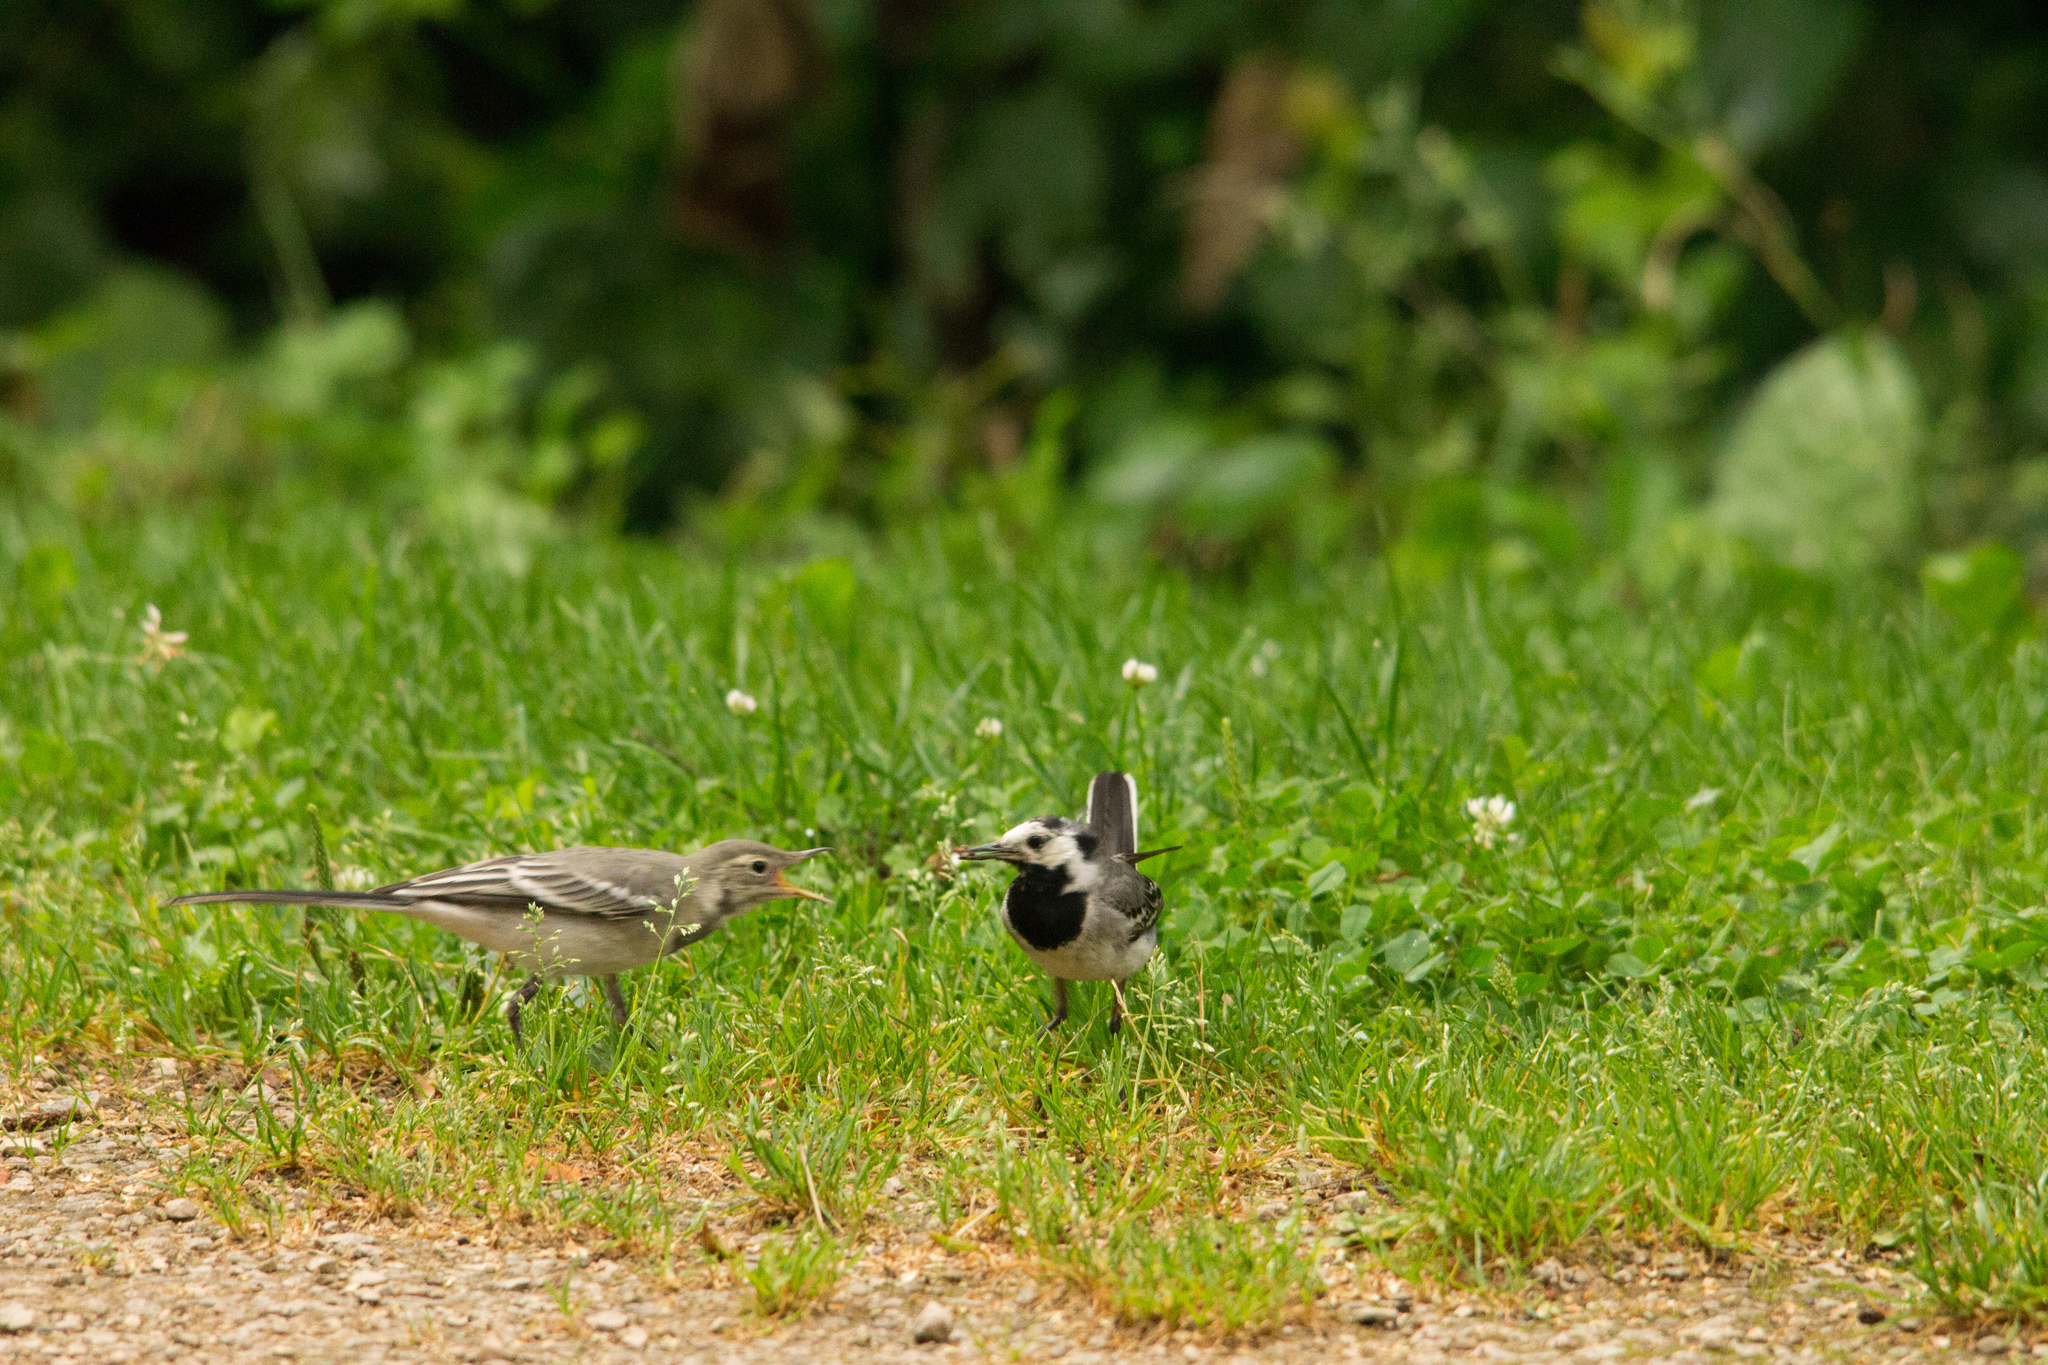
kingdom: Animalia
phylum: Chordata
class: Aves
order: Passeriformes
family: Motacillidae
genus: Motacilla
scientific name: Motacilla alba
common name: White wagtail
